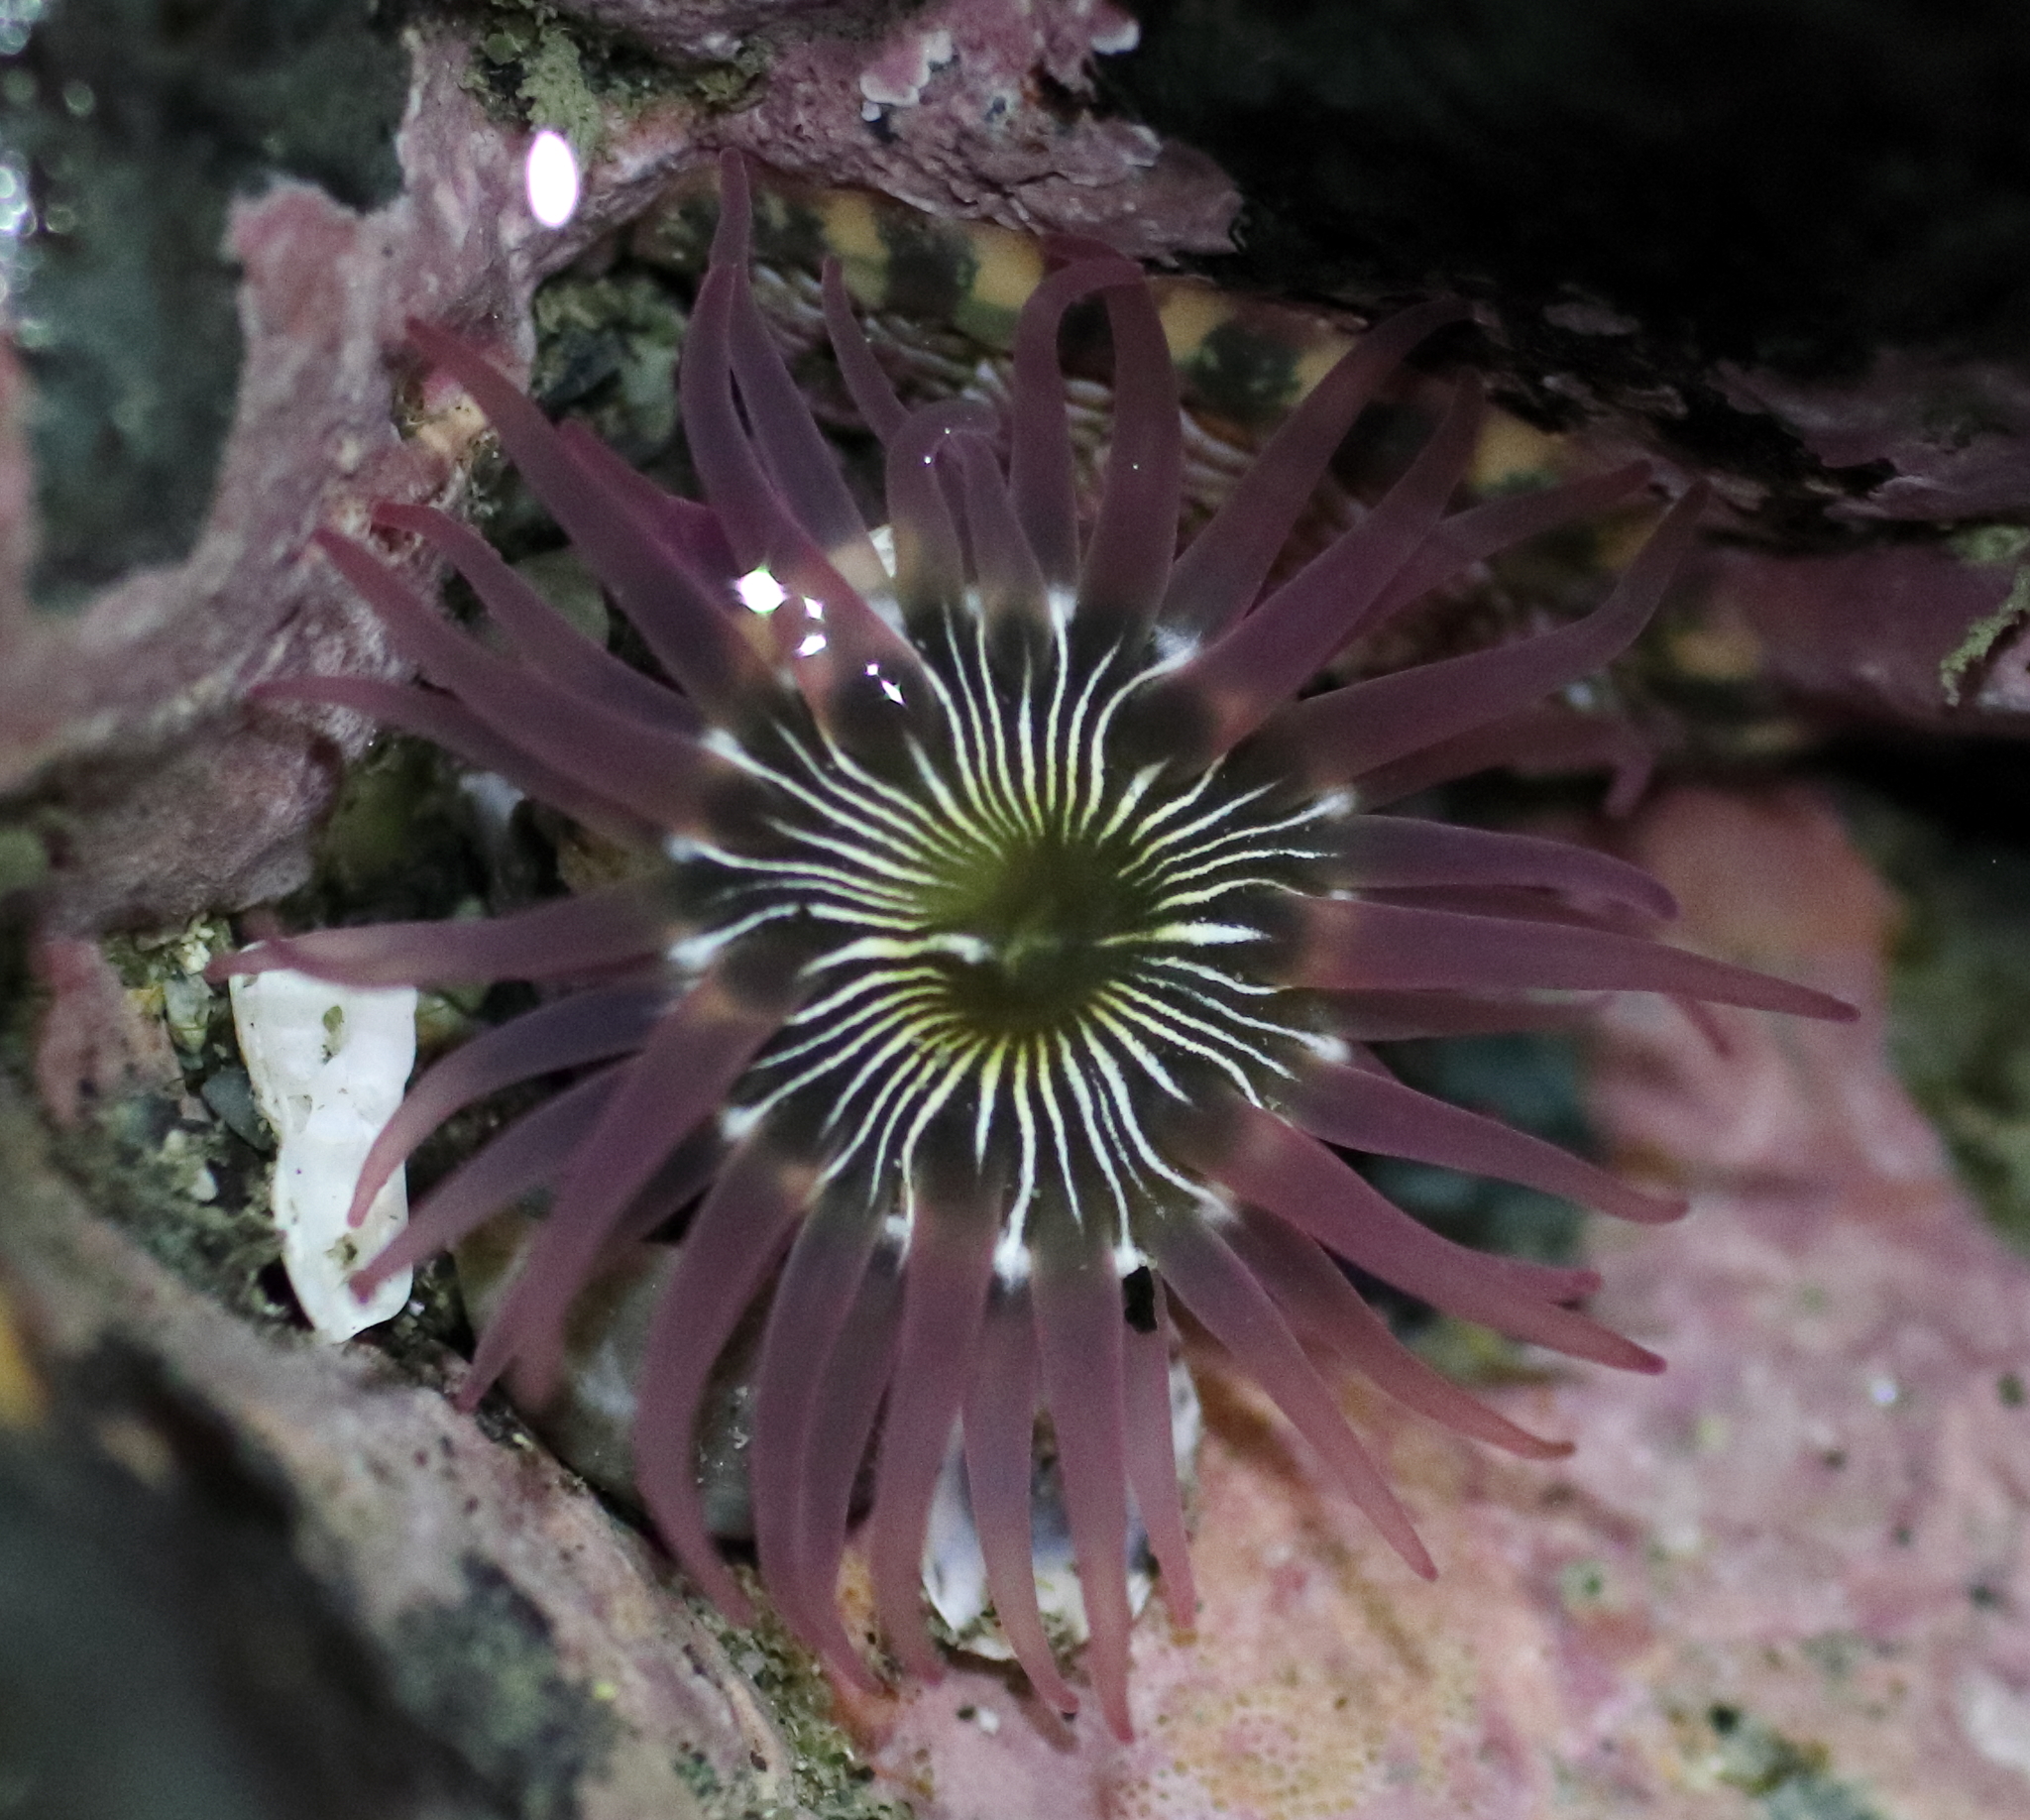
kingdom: Animalia
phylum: Cnidaria
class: Anthozoa
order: Actiniaria
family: Actiniidae
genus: Aulactinia
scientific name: Aulactinia incubans
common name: Incubating anemone
